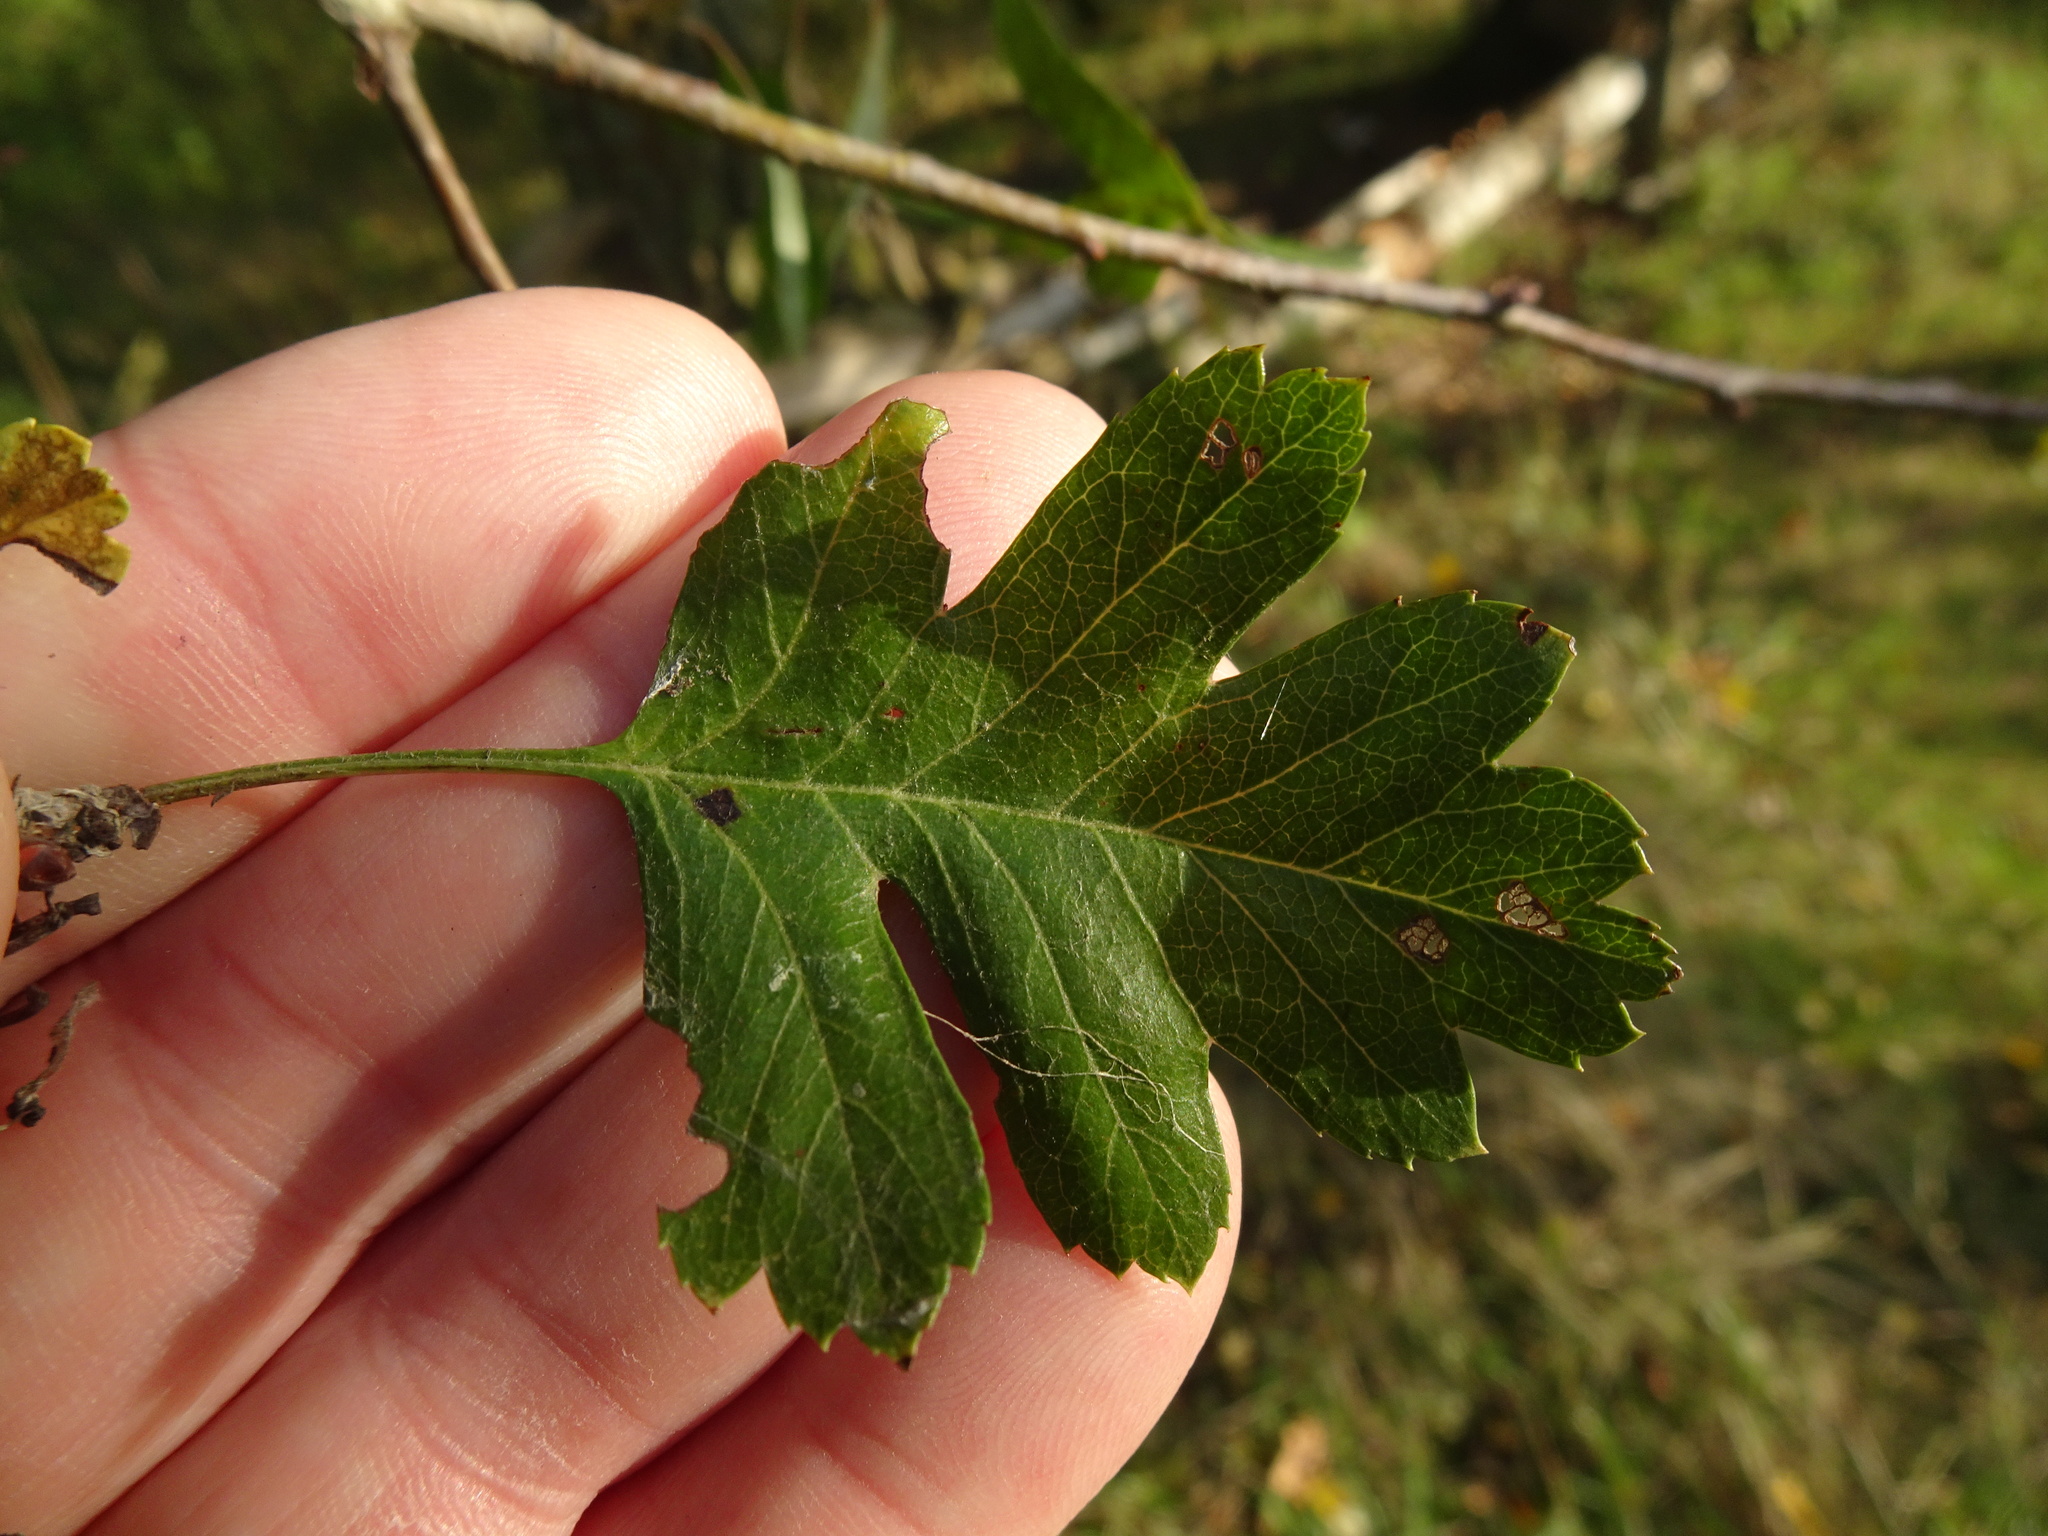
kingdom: Plantae
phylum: Tracheophyta
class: Magnoliopsida
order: Rosales
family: Rosaceae
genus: Crataegus
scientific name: Crataegus monogyna
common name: Hawthorn
